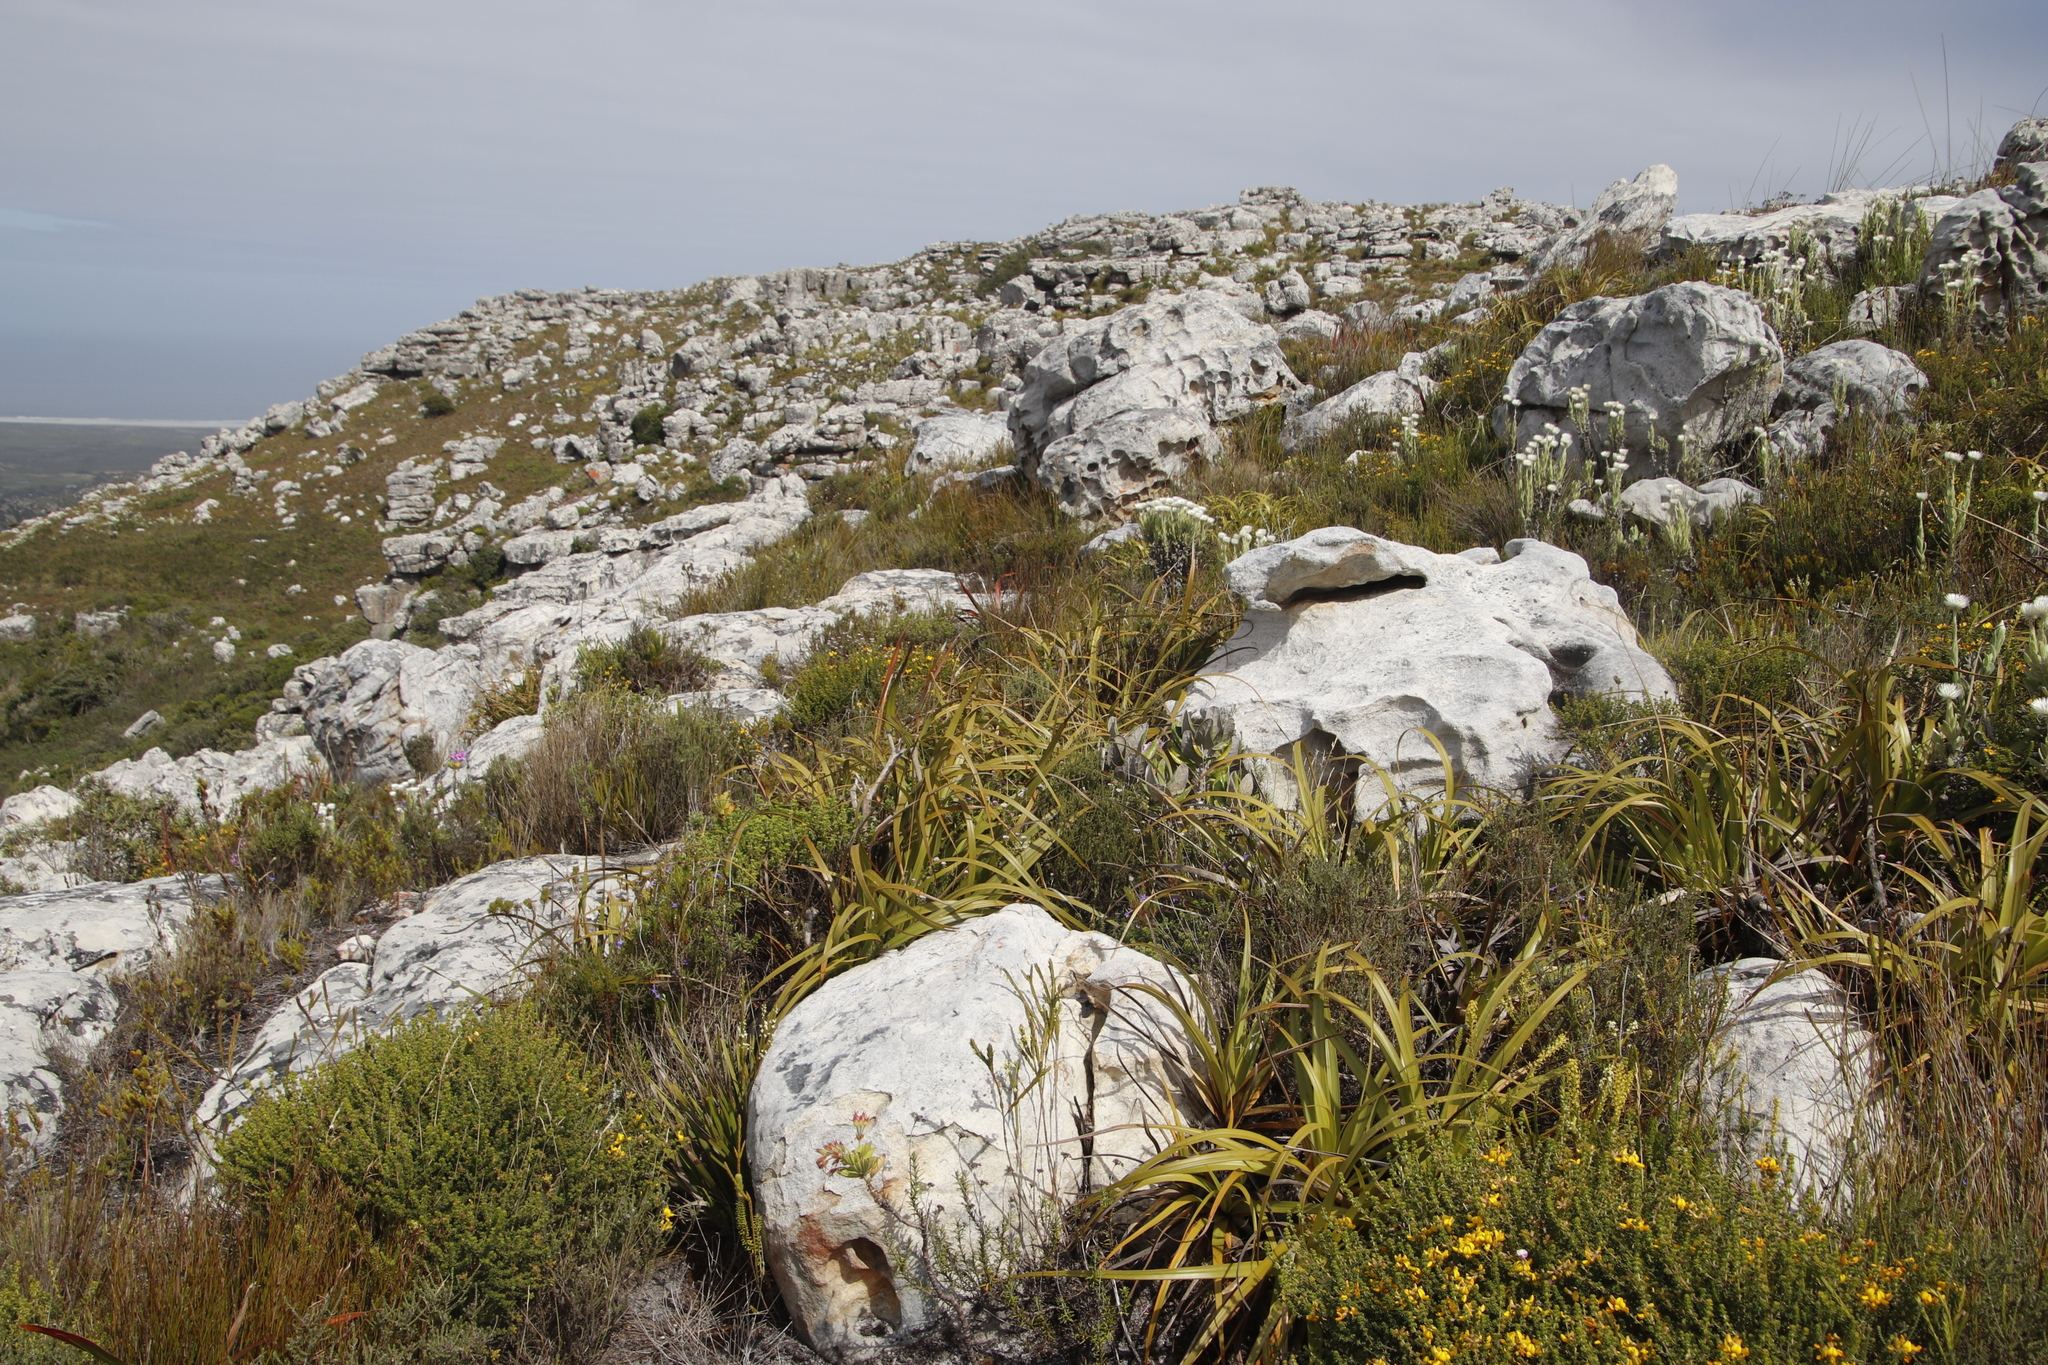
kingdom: Plantae
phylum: Tracheophyta
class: Liliopsida
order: Poales
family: Cyperaceae
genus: Tetraria
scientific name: Tetraria thermalis
